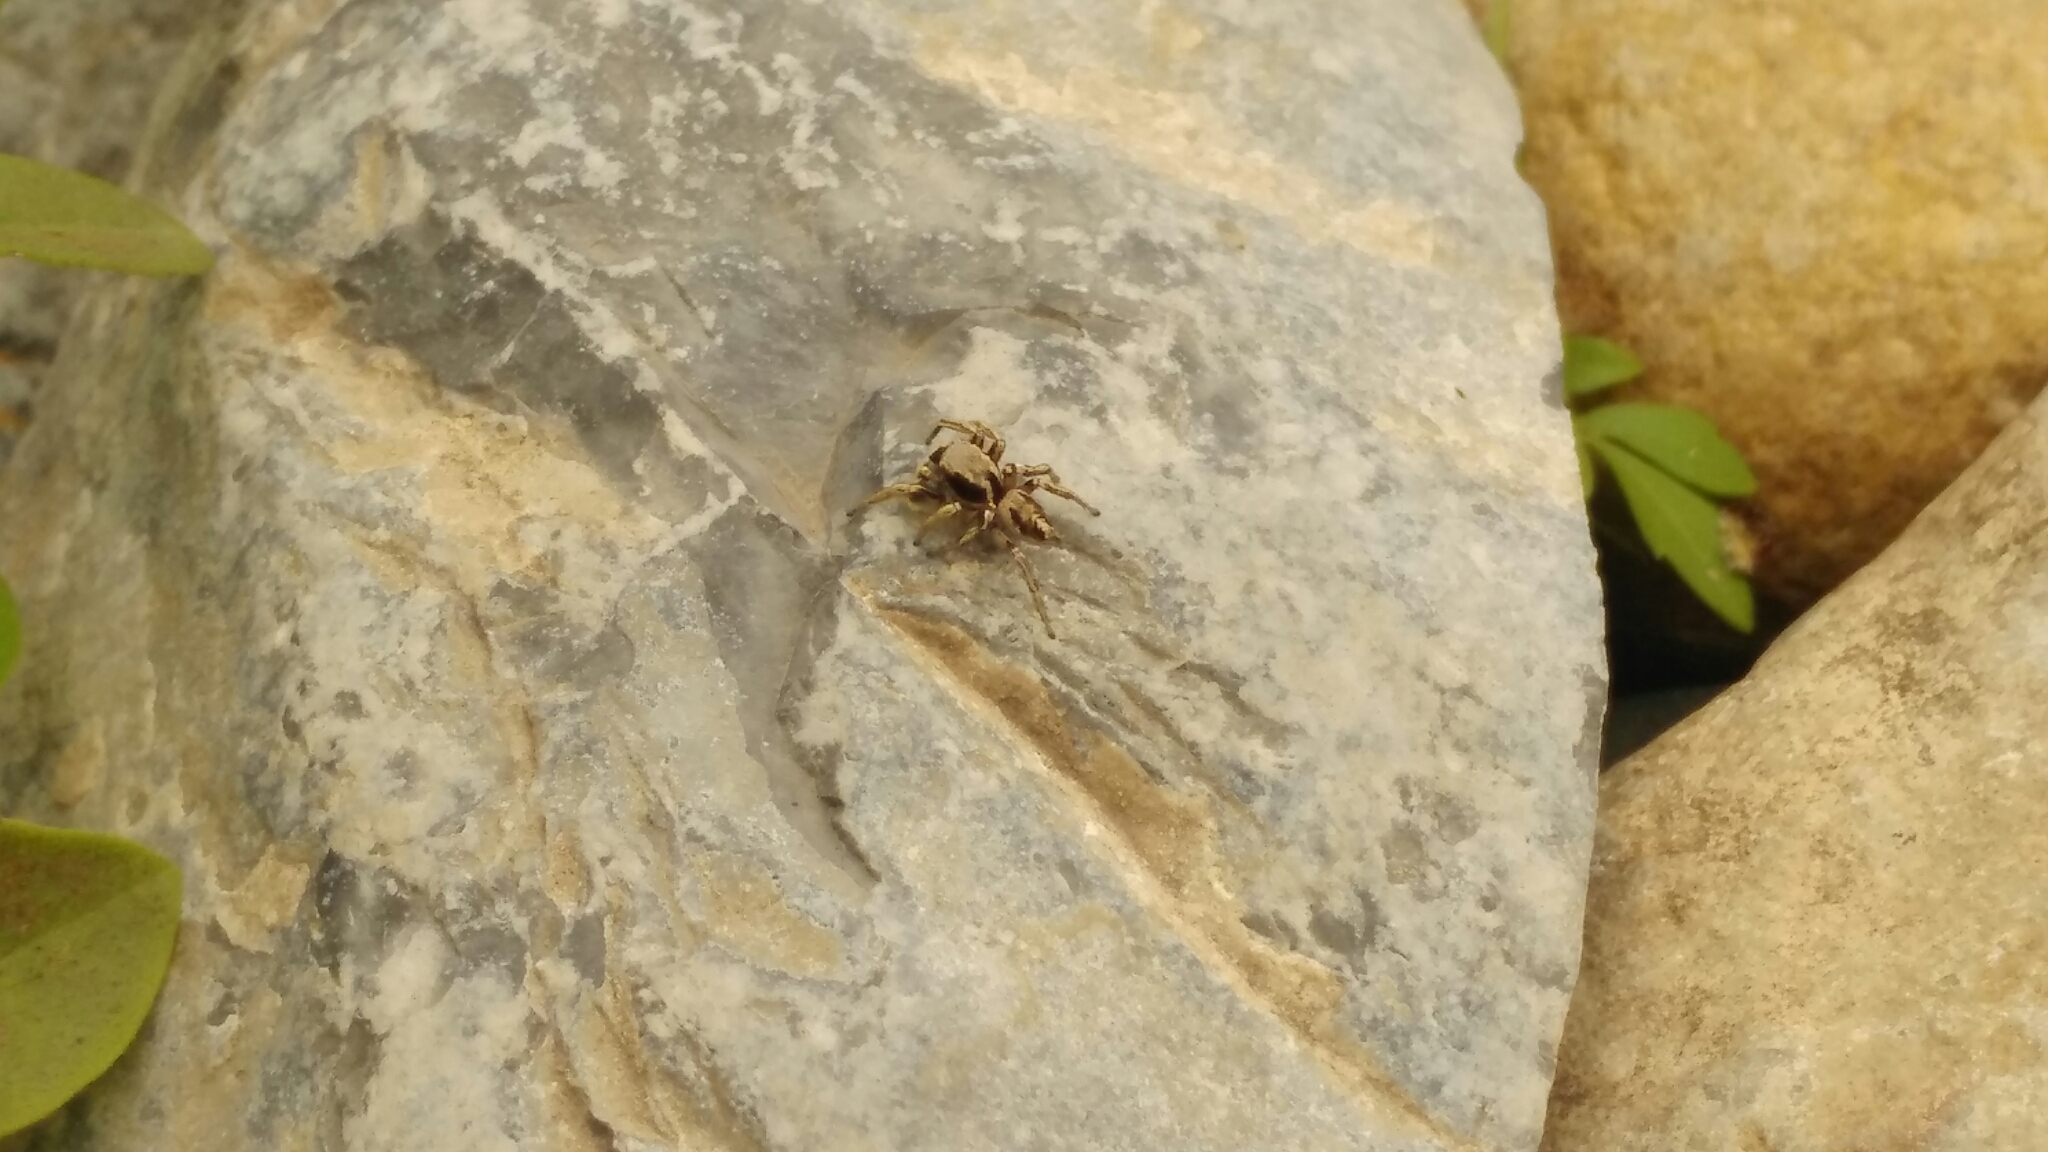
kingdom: Animalia
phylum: Arthropoda
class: Arachnida
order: Araneae
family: Salticidae
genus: Habronattus
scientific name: Habronattus mexicanus
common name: Jumping spiders
